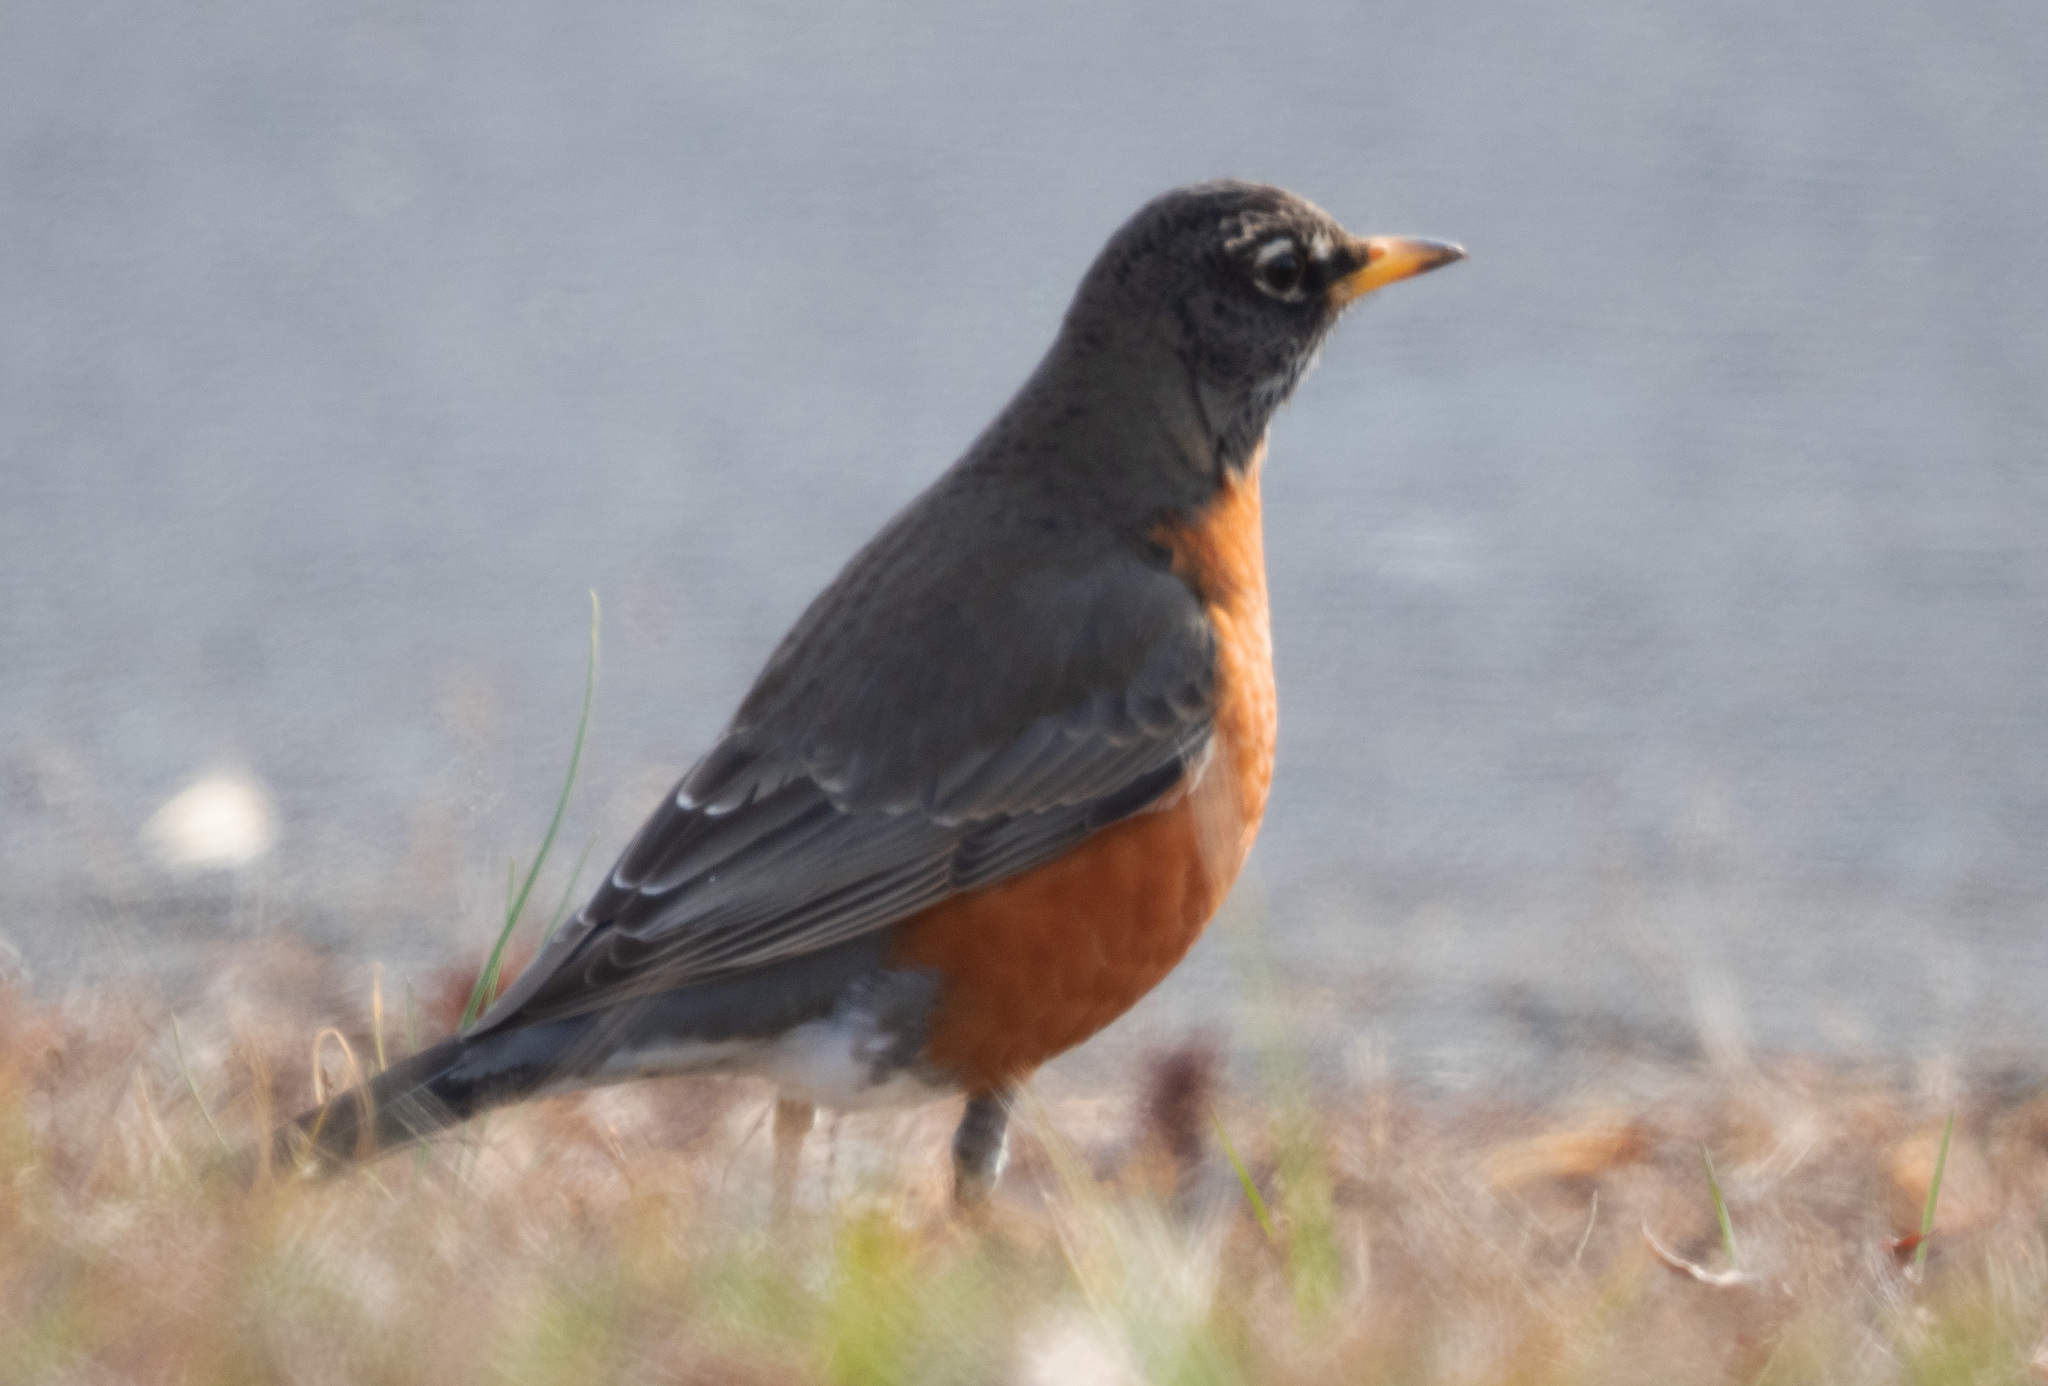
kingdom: Animalia
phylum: Chordata
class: Aves
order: Passeriformes
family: Turdidae
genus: Turdus
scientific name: Turdus migratorius
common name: American robin
